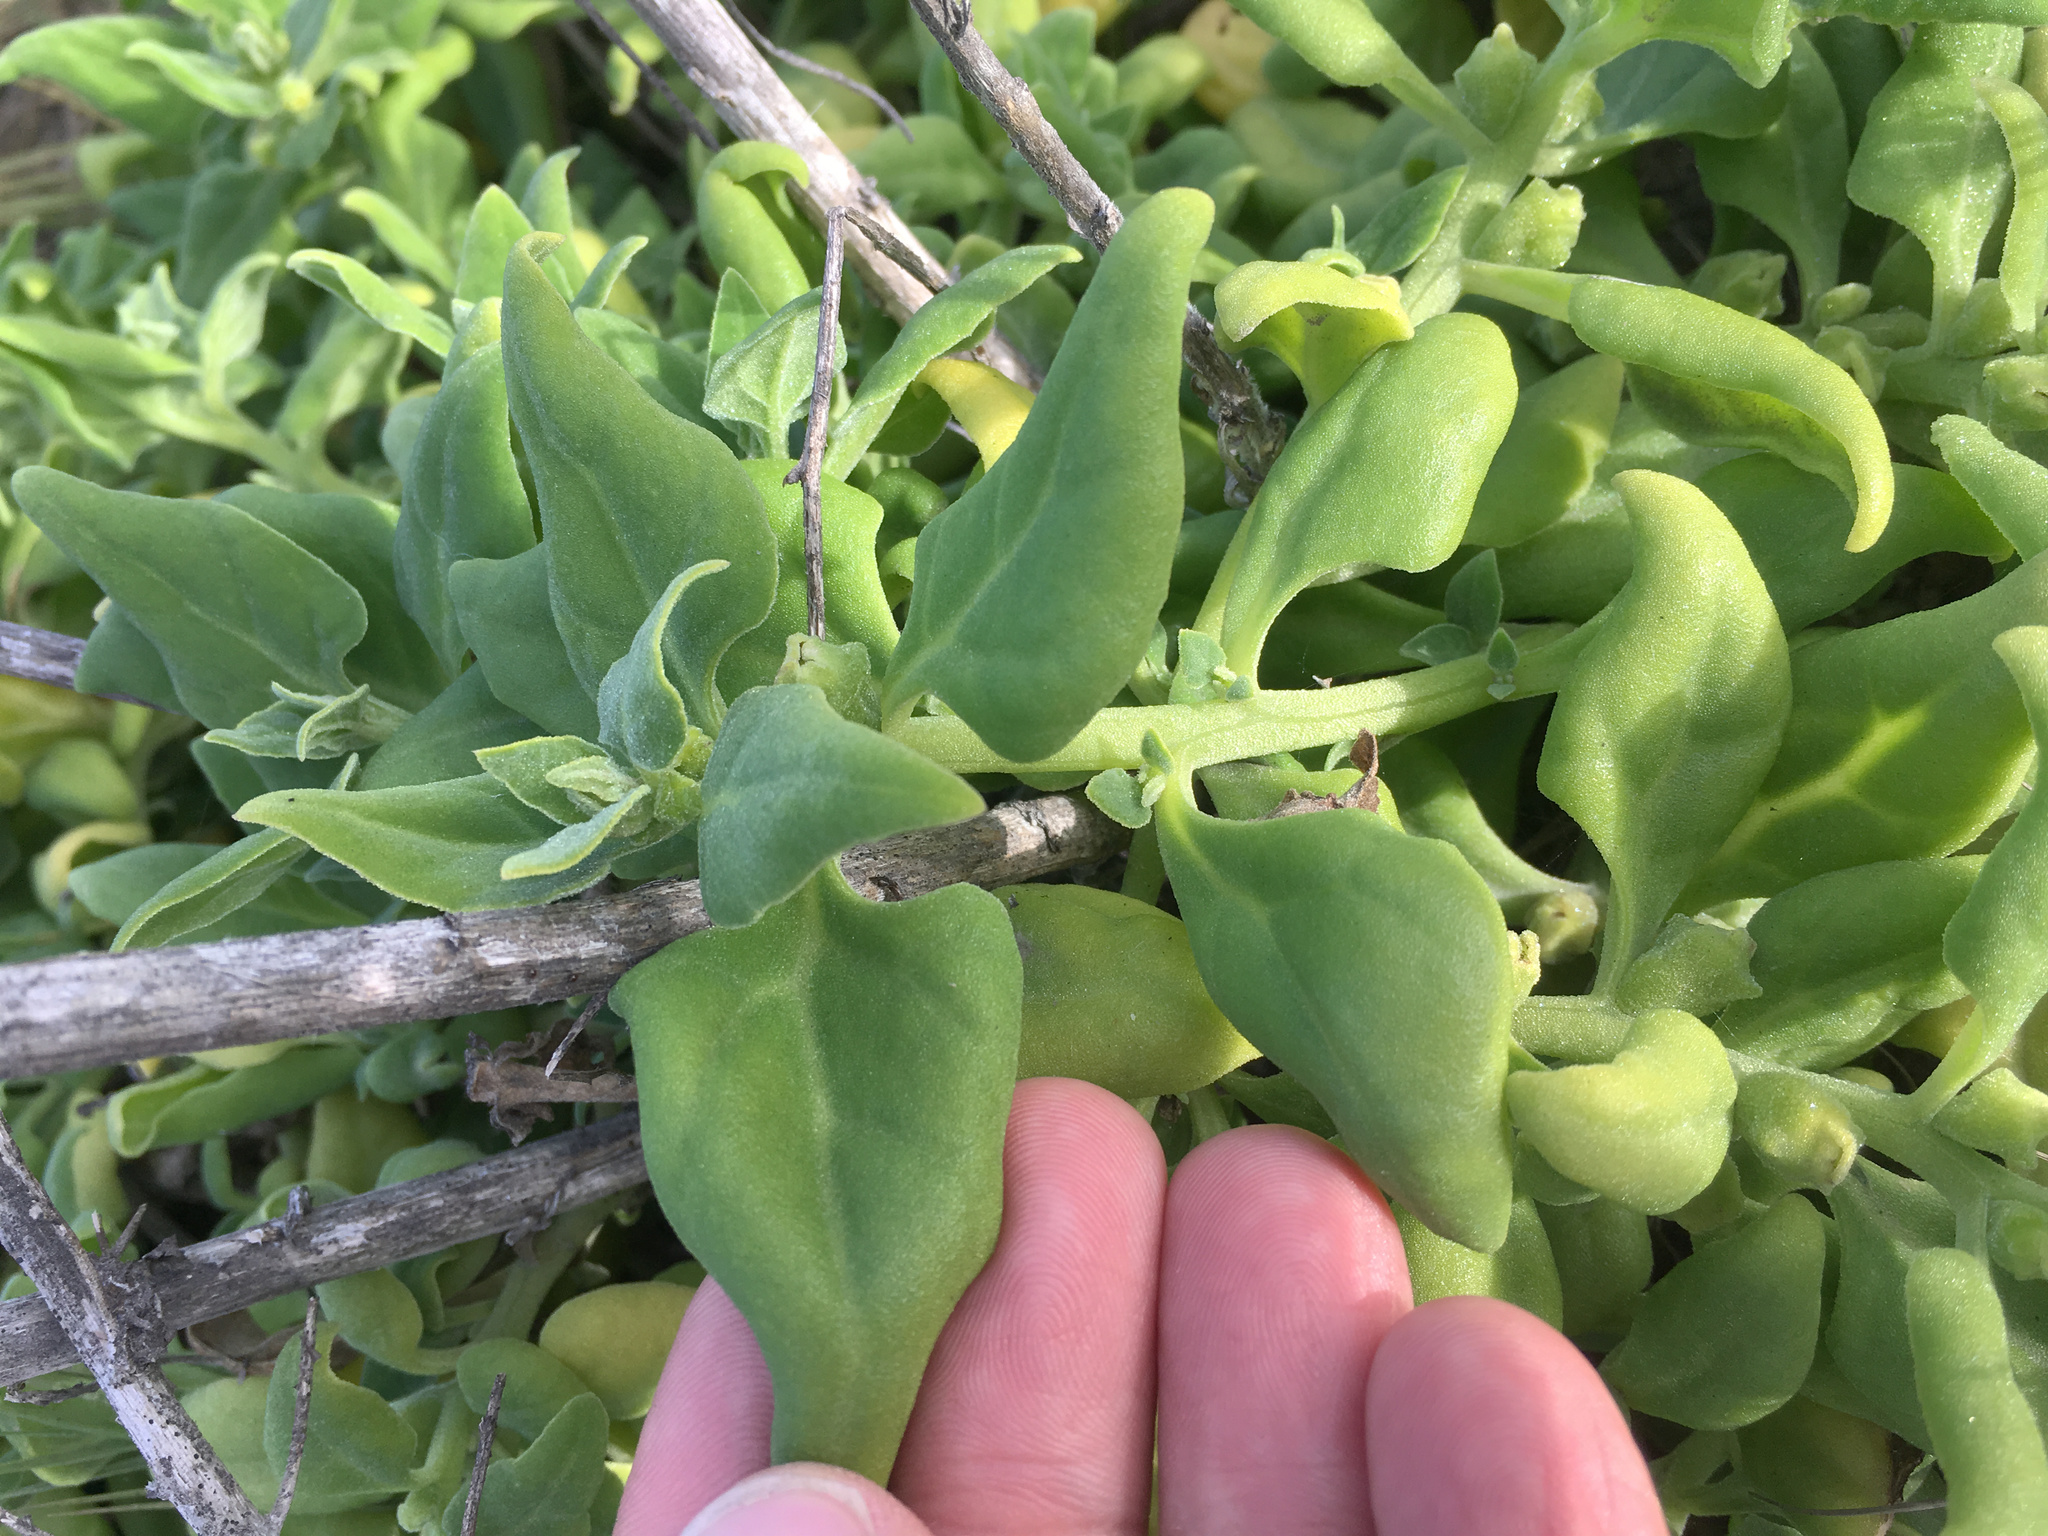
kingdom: Plantae
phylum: Tracheophyta
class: Magnoliopsida
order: Caryophyllales
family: Aizoaceae
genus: Tetragonia
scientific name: Tetragonia tetragonoides
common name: New zealand-spinach
